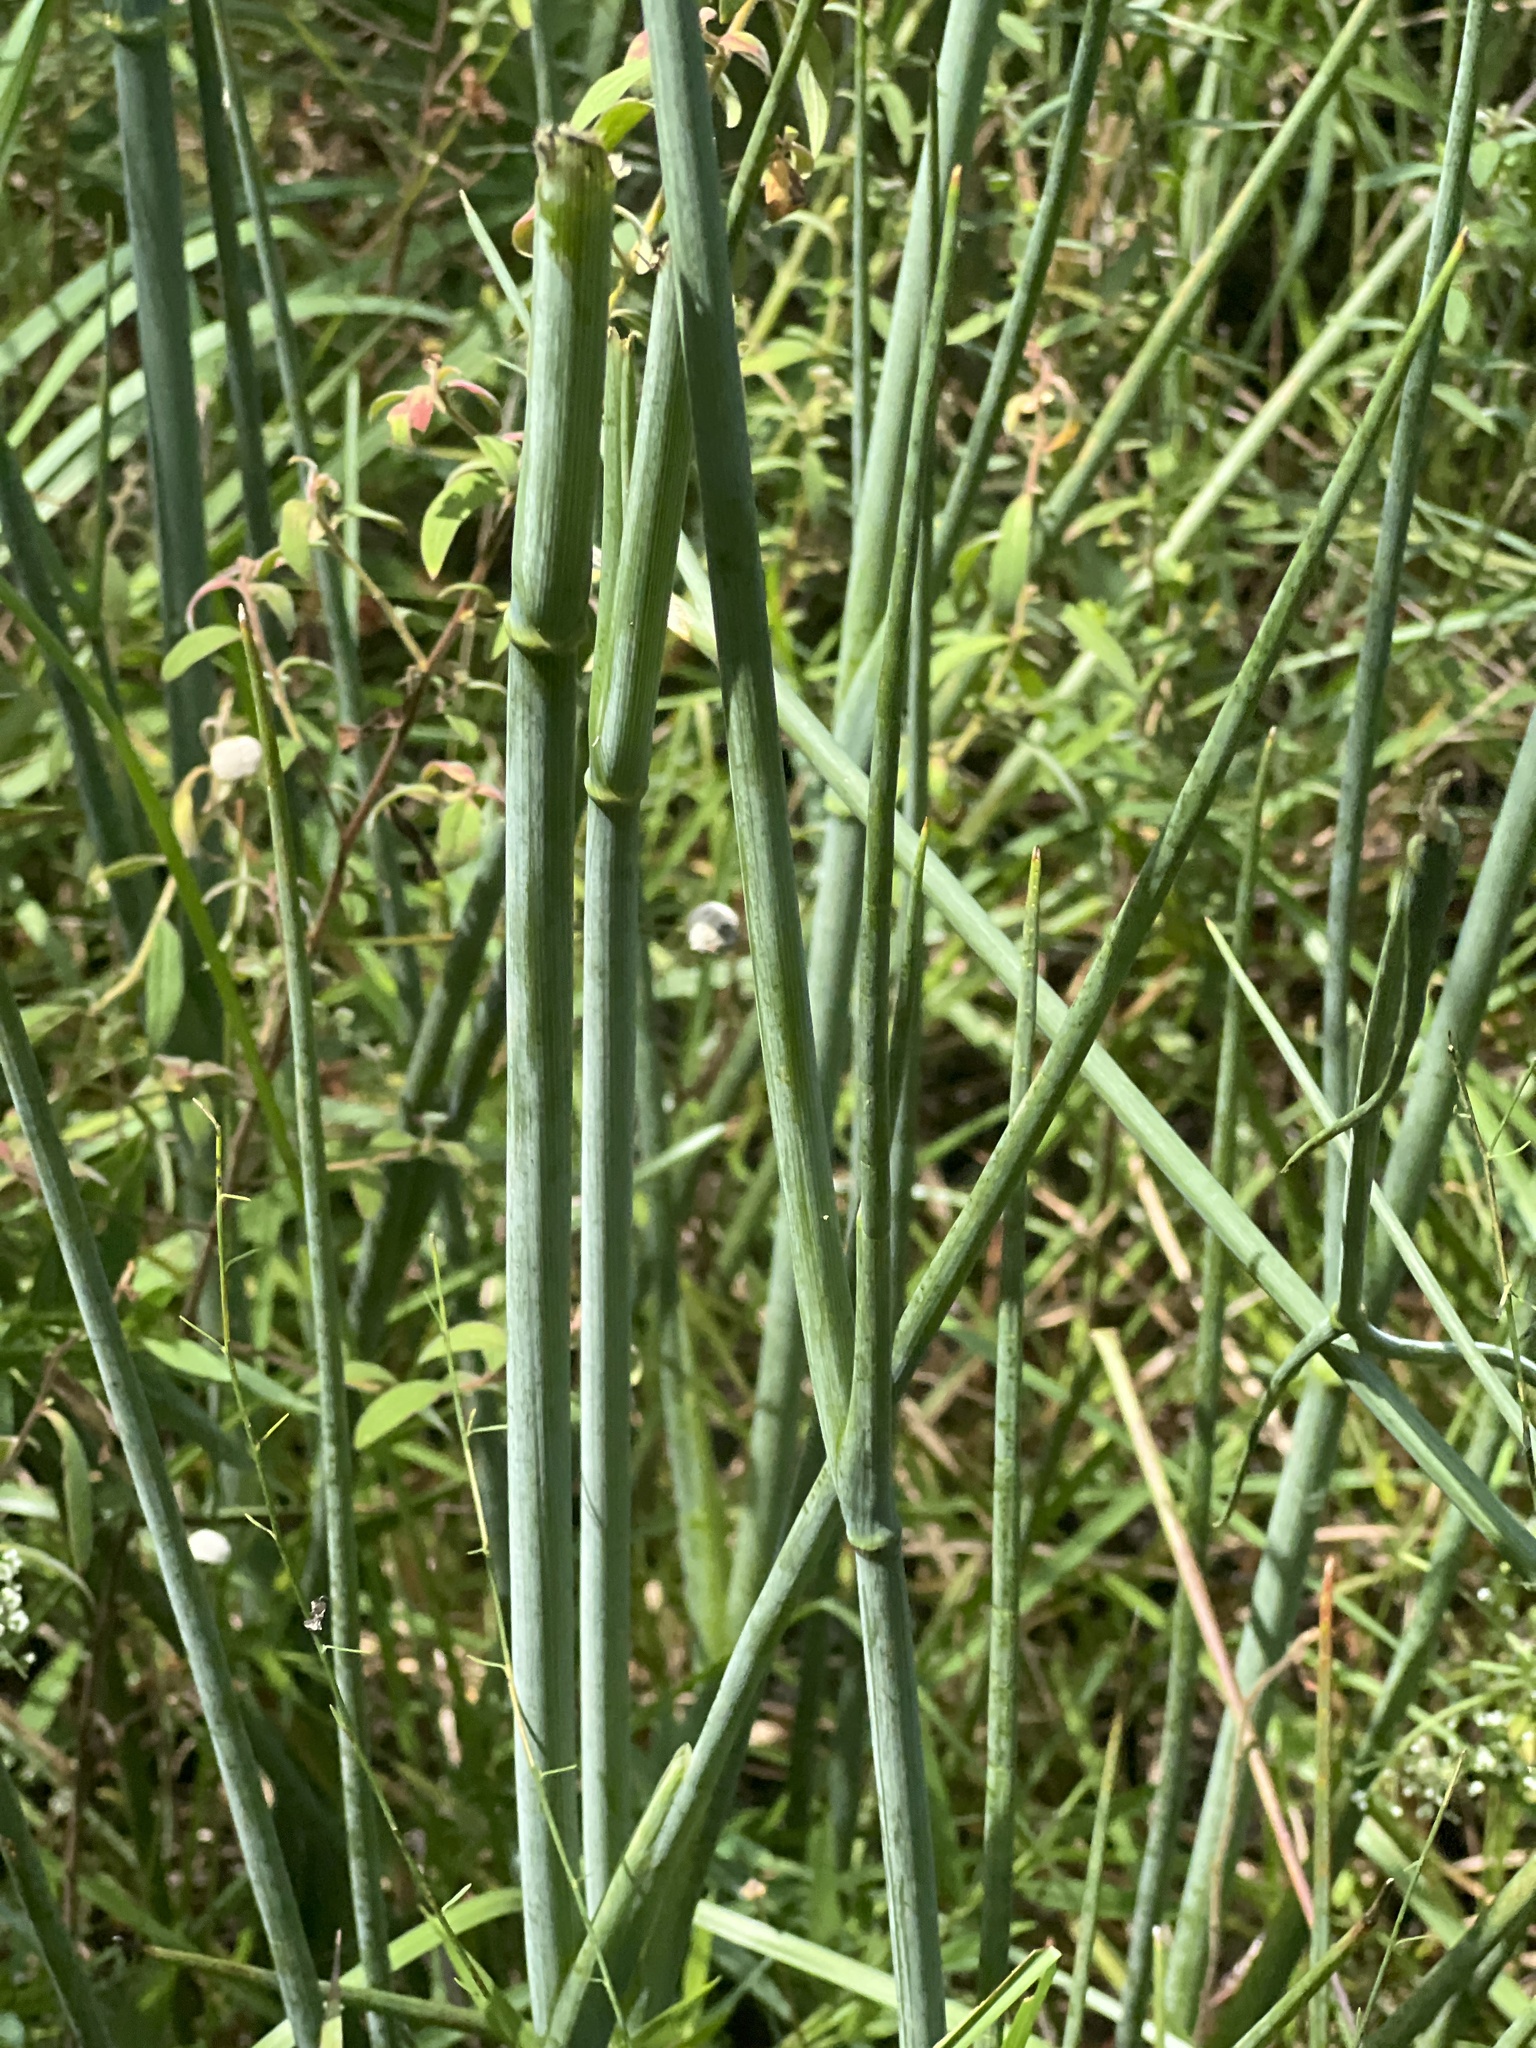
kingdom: Plantae
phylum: Tracheophyta
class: Magnoliopsida
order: Apiales
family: Apiaceae
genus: Tiedemannia
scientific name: Tiedemannia filiformis
